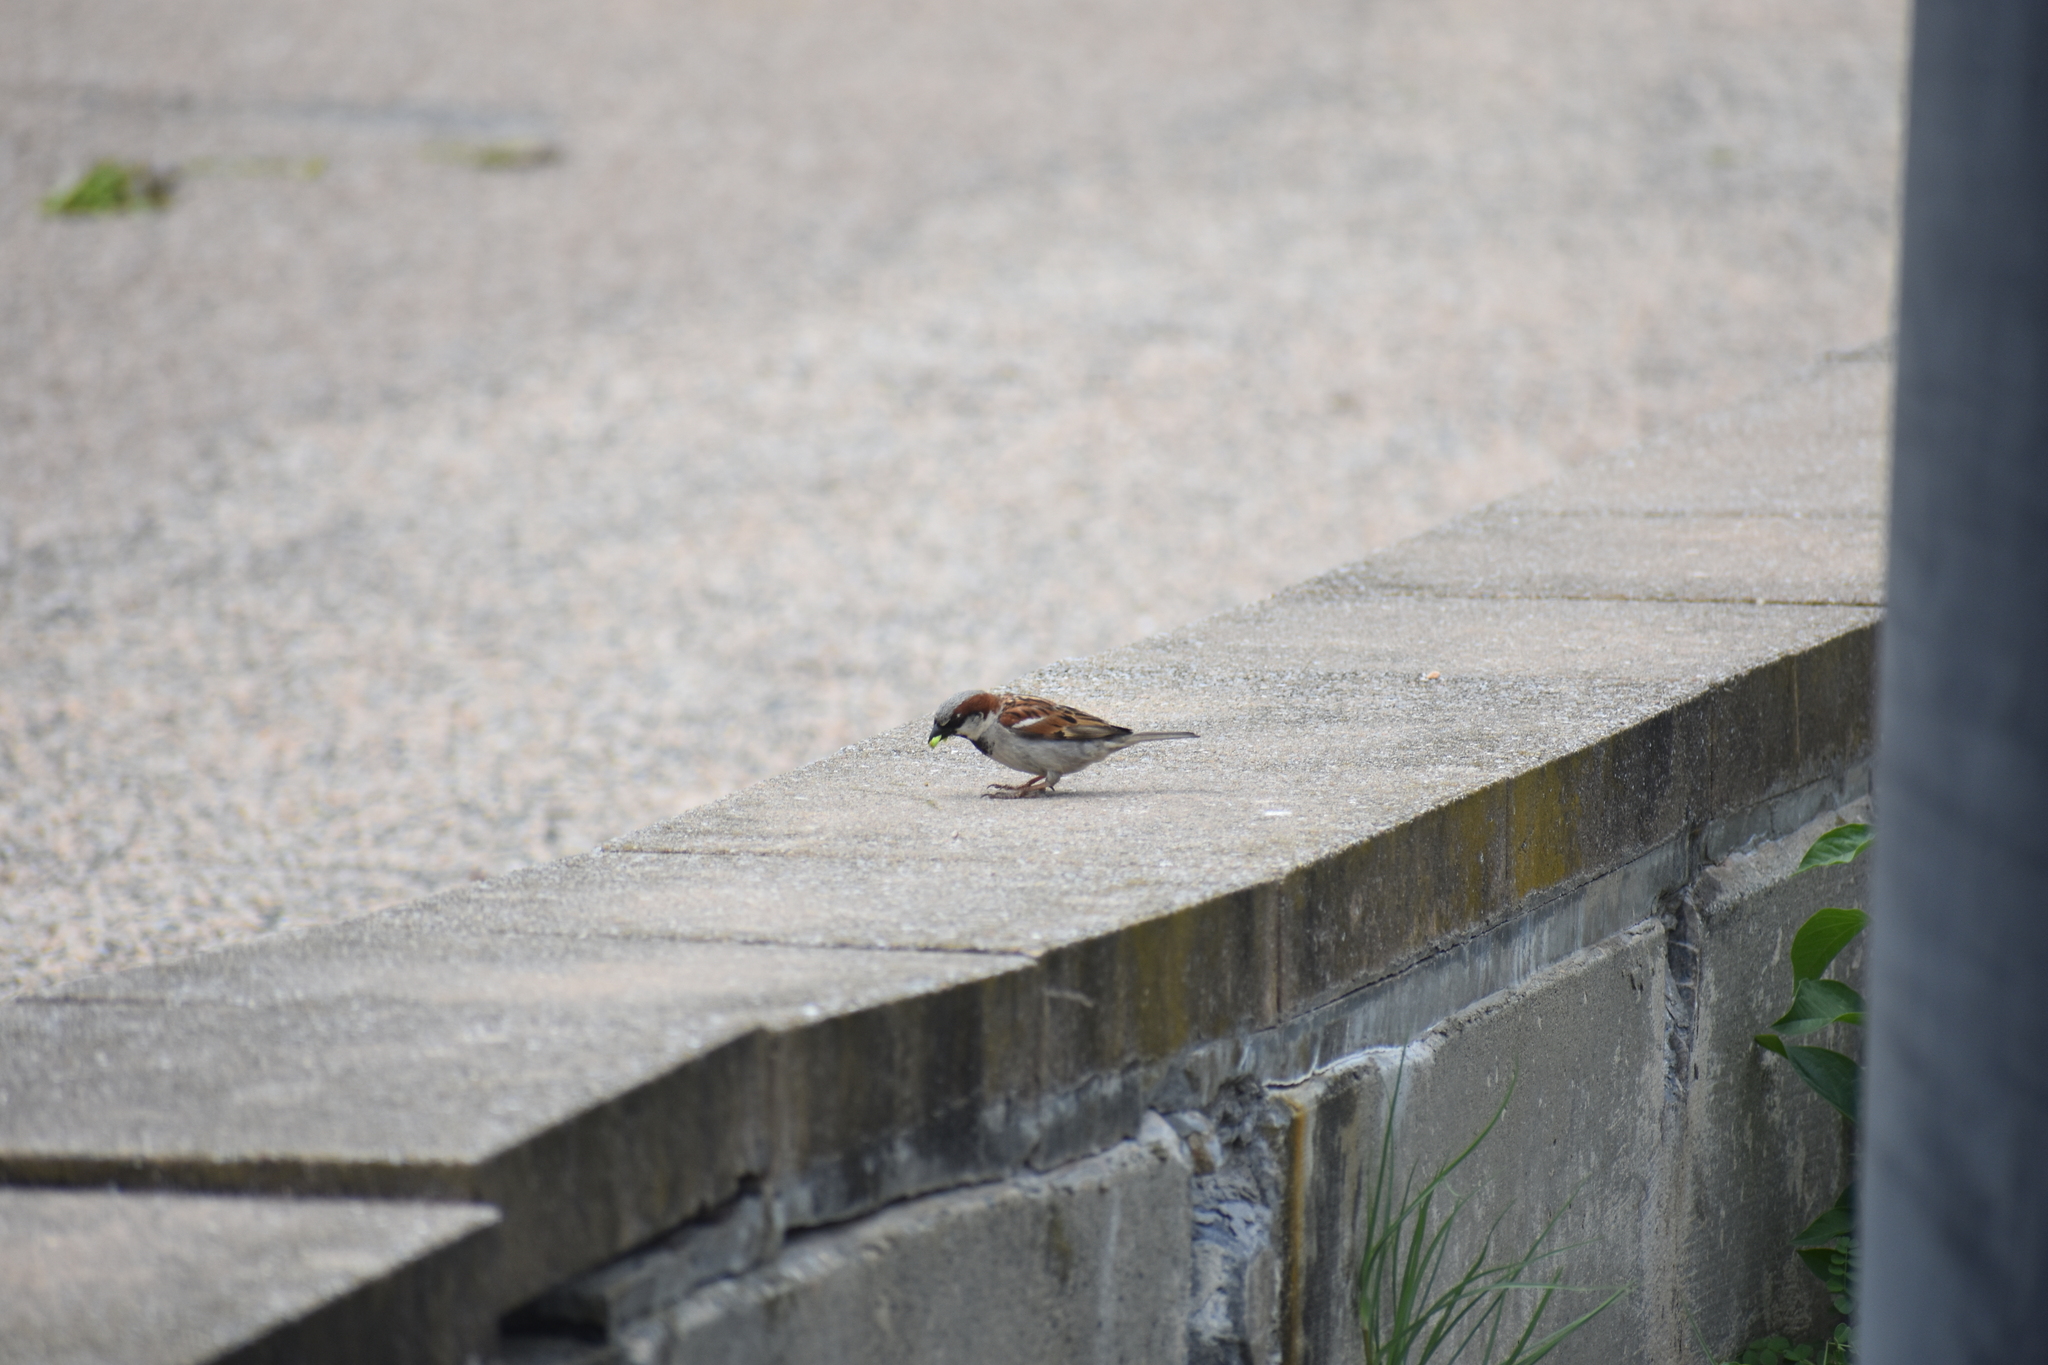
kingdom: Animalia
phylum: Chordata
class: Aves
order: Passeriformes
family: Passeridae
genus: Passer
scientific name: Passer domesticus
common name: House sparrow
